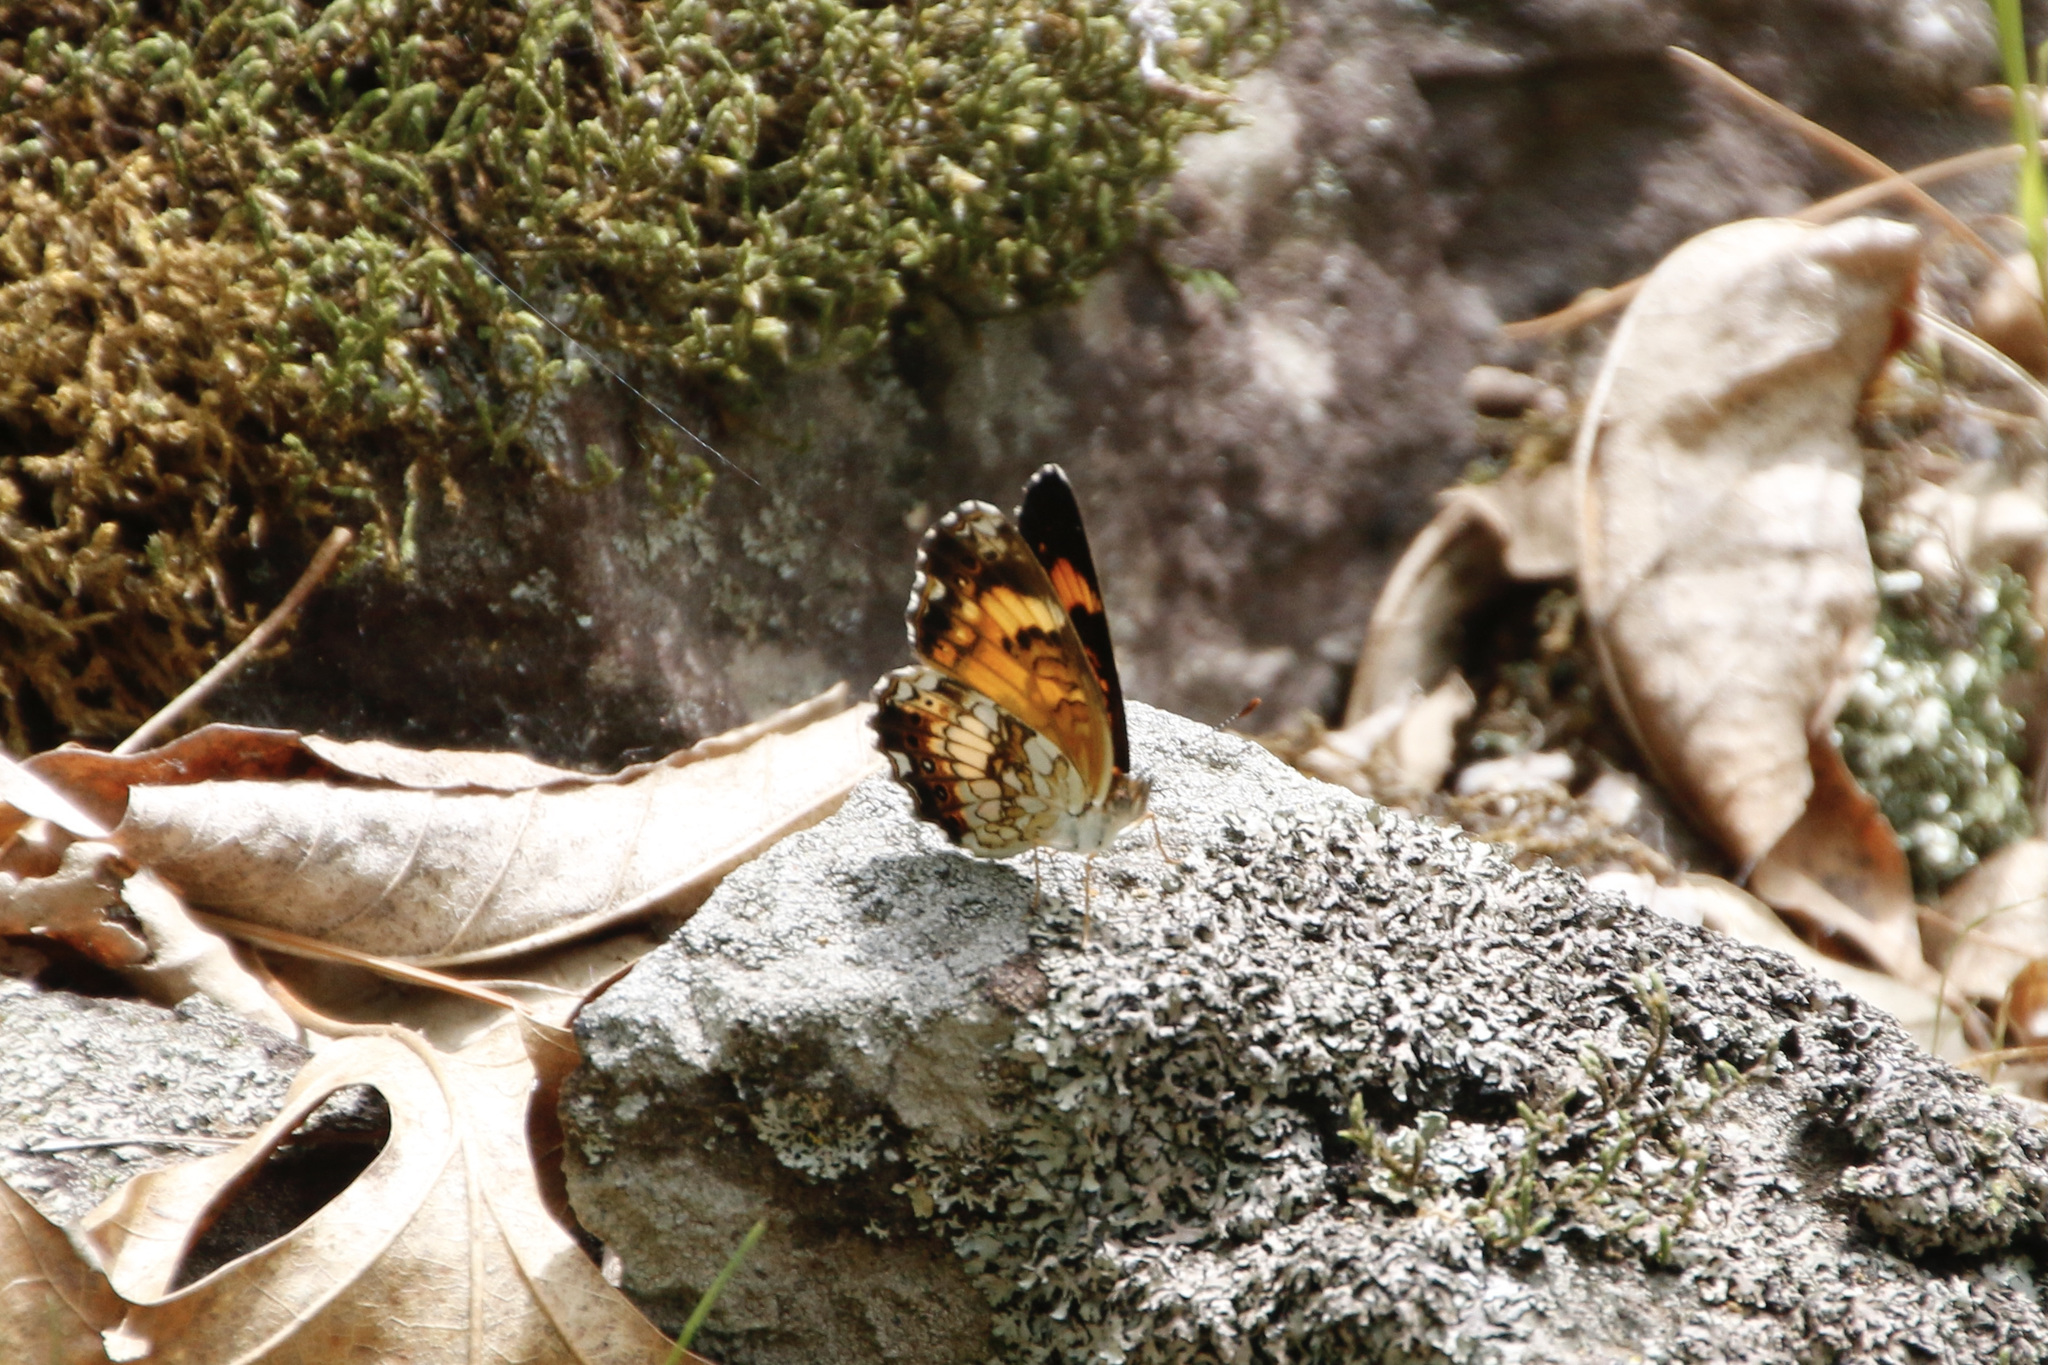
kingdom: Animalia
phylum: Arthropoda
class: Insecta
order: Lepidoptera
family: Nymphalidae
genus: Chlosyne
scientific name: Chlosyne nycteis
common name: Silvery checkerspot
